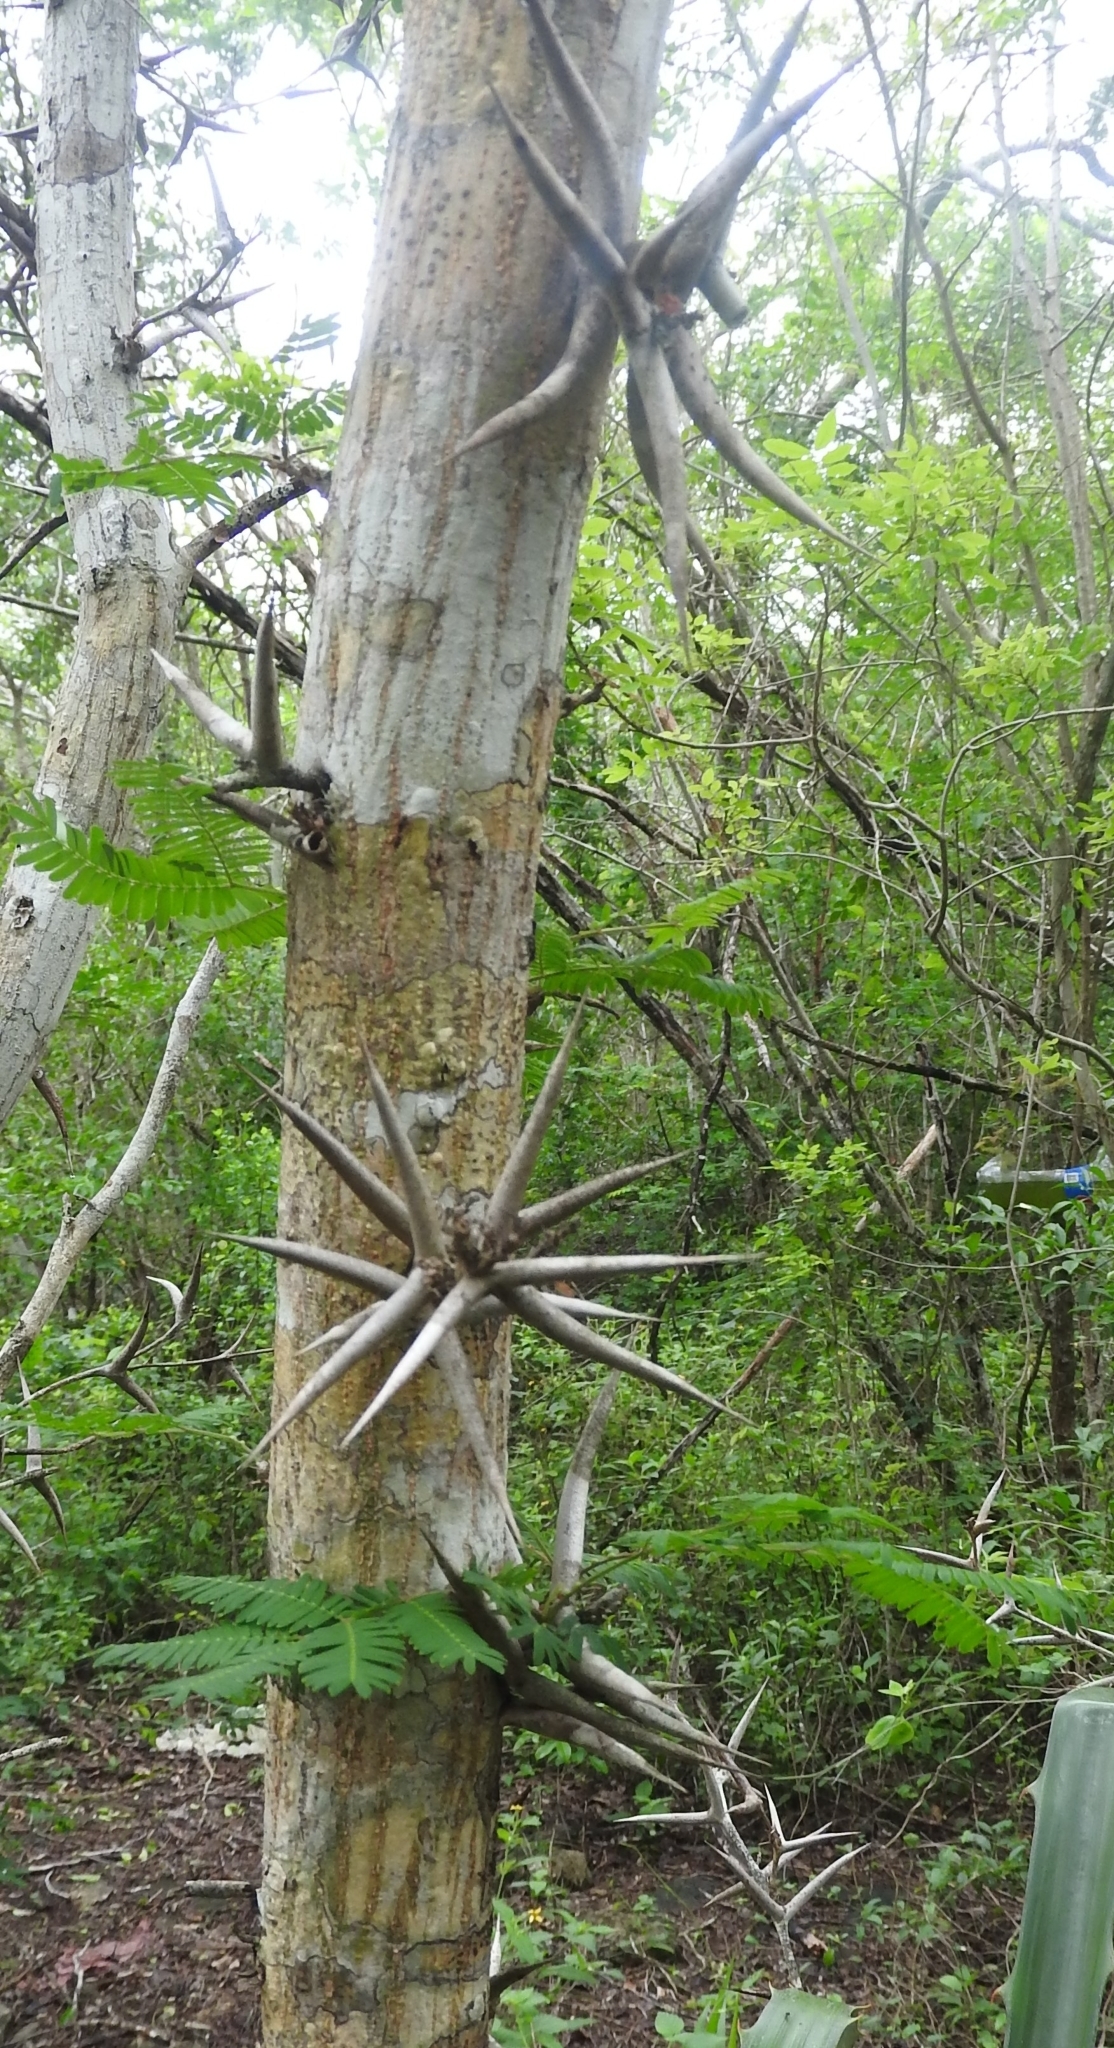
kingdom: Plantae
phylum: Tracheophyta
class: Magnoliopsida
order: Fabales
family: Fabaceae
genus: Vachellia
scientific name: Vachellia cornigera
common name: Bullhorn wattle
